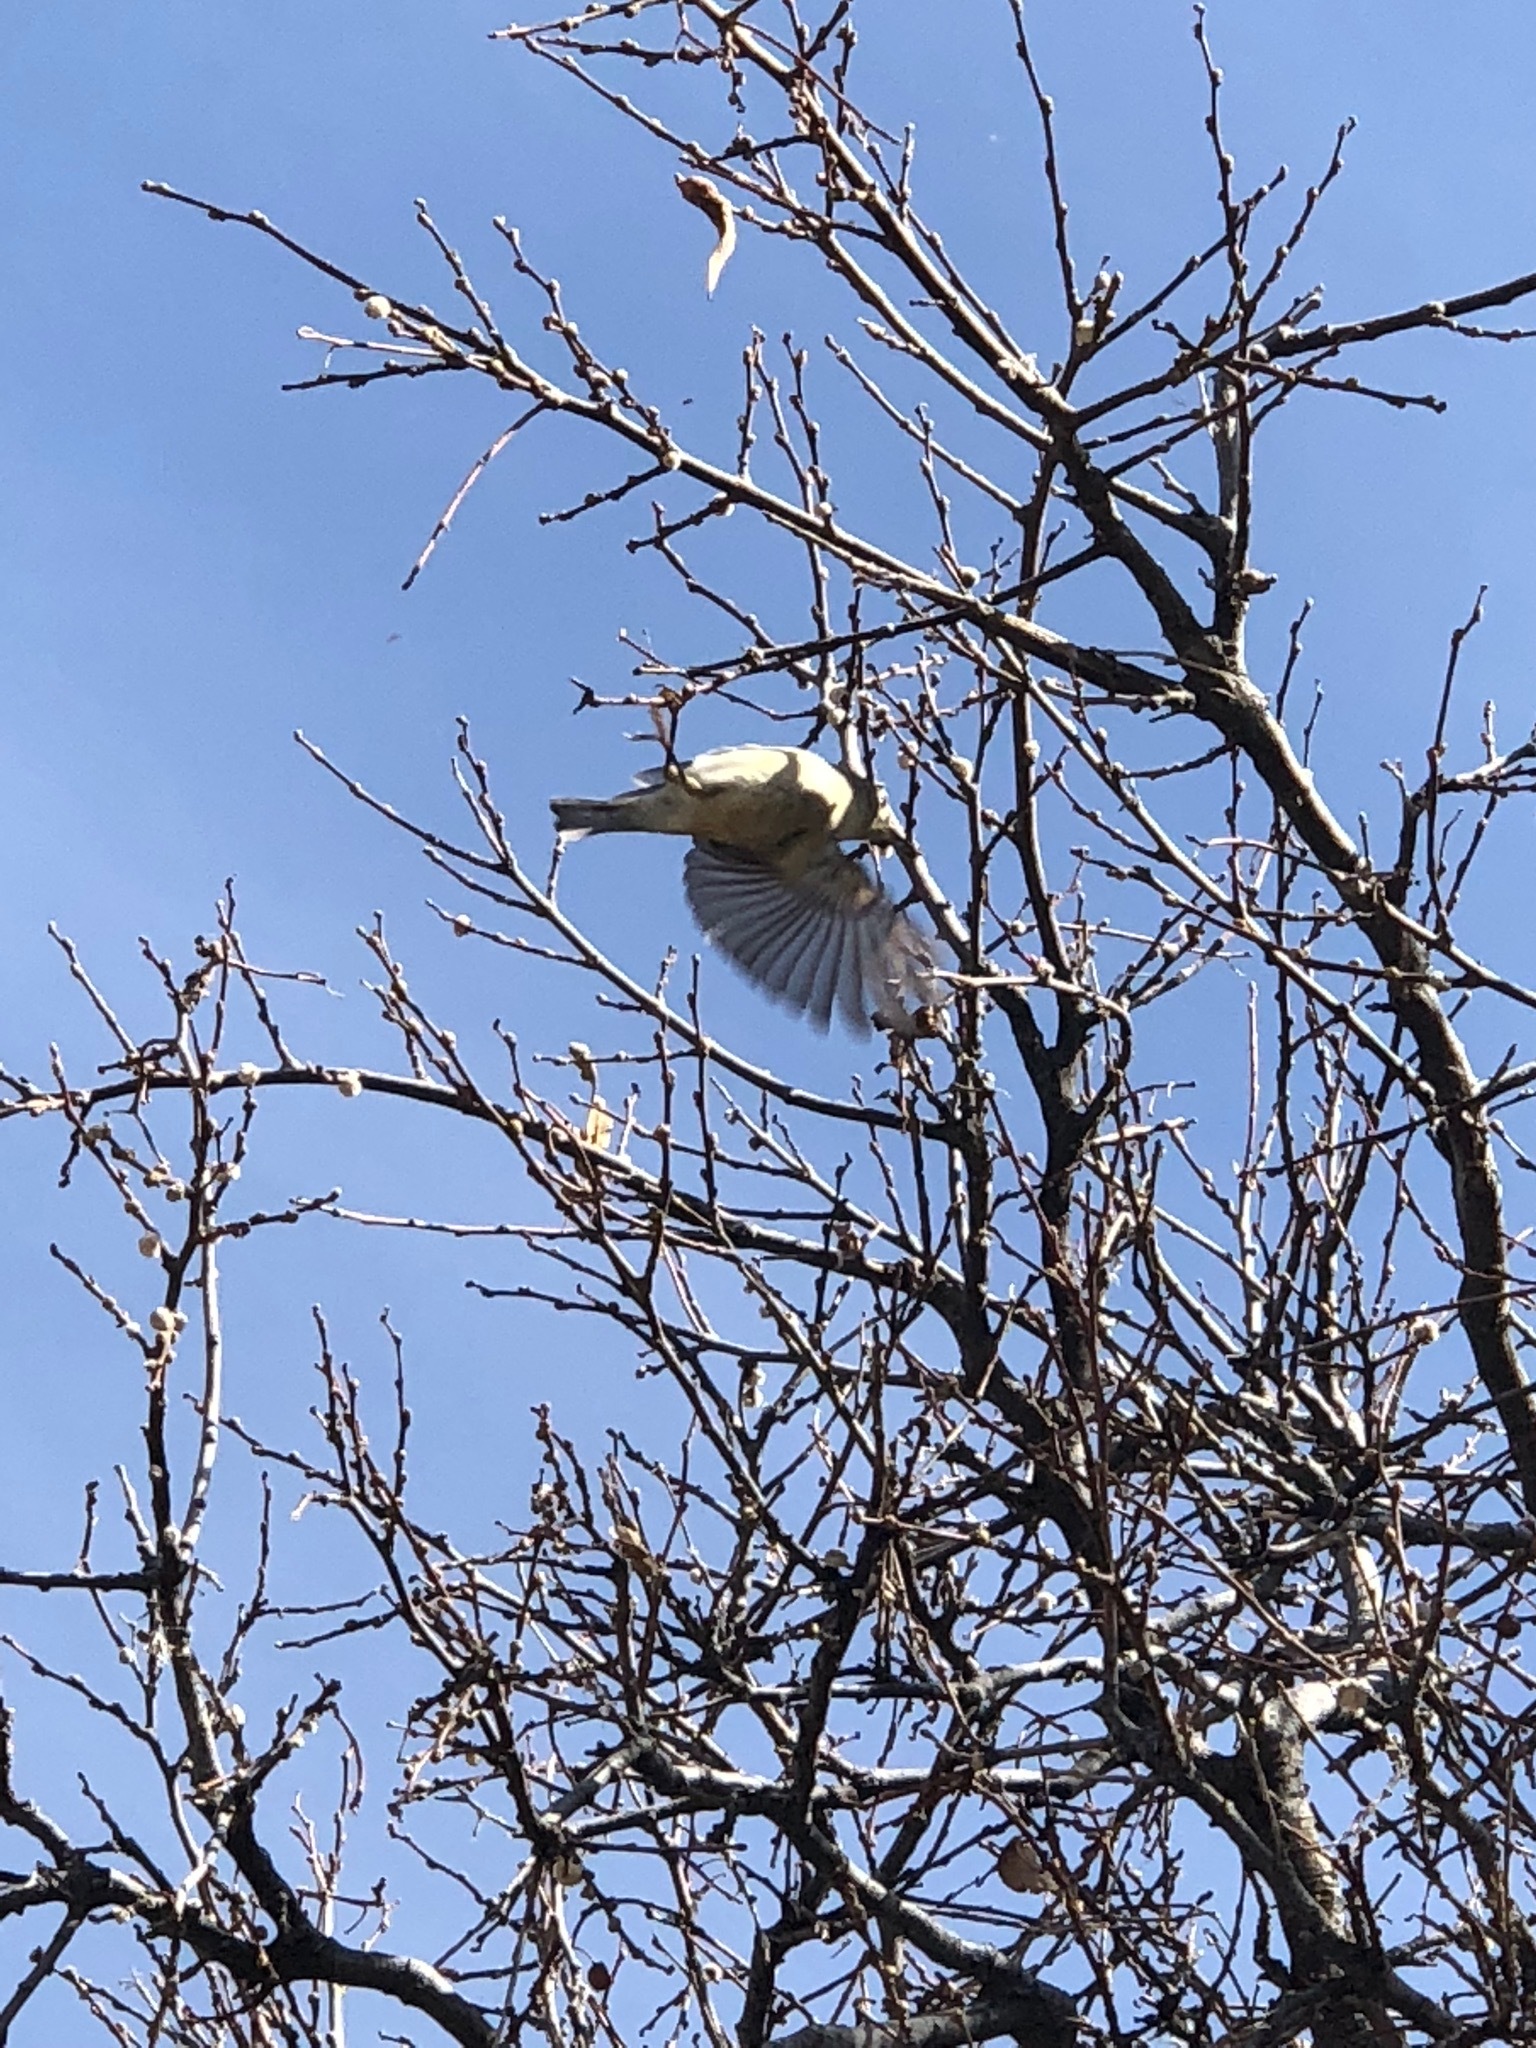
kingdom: Animalia
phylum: Chordata
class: Aves
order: Passeriformes
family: Regulidae
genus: Regulus
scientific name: Regulus calendula
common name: Ruby-crowned kinglet
